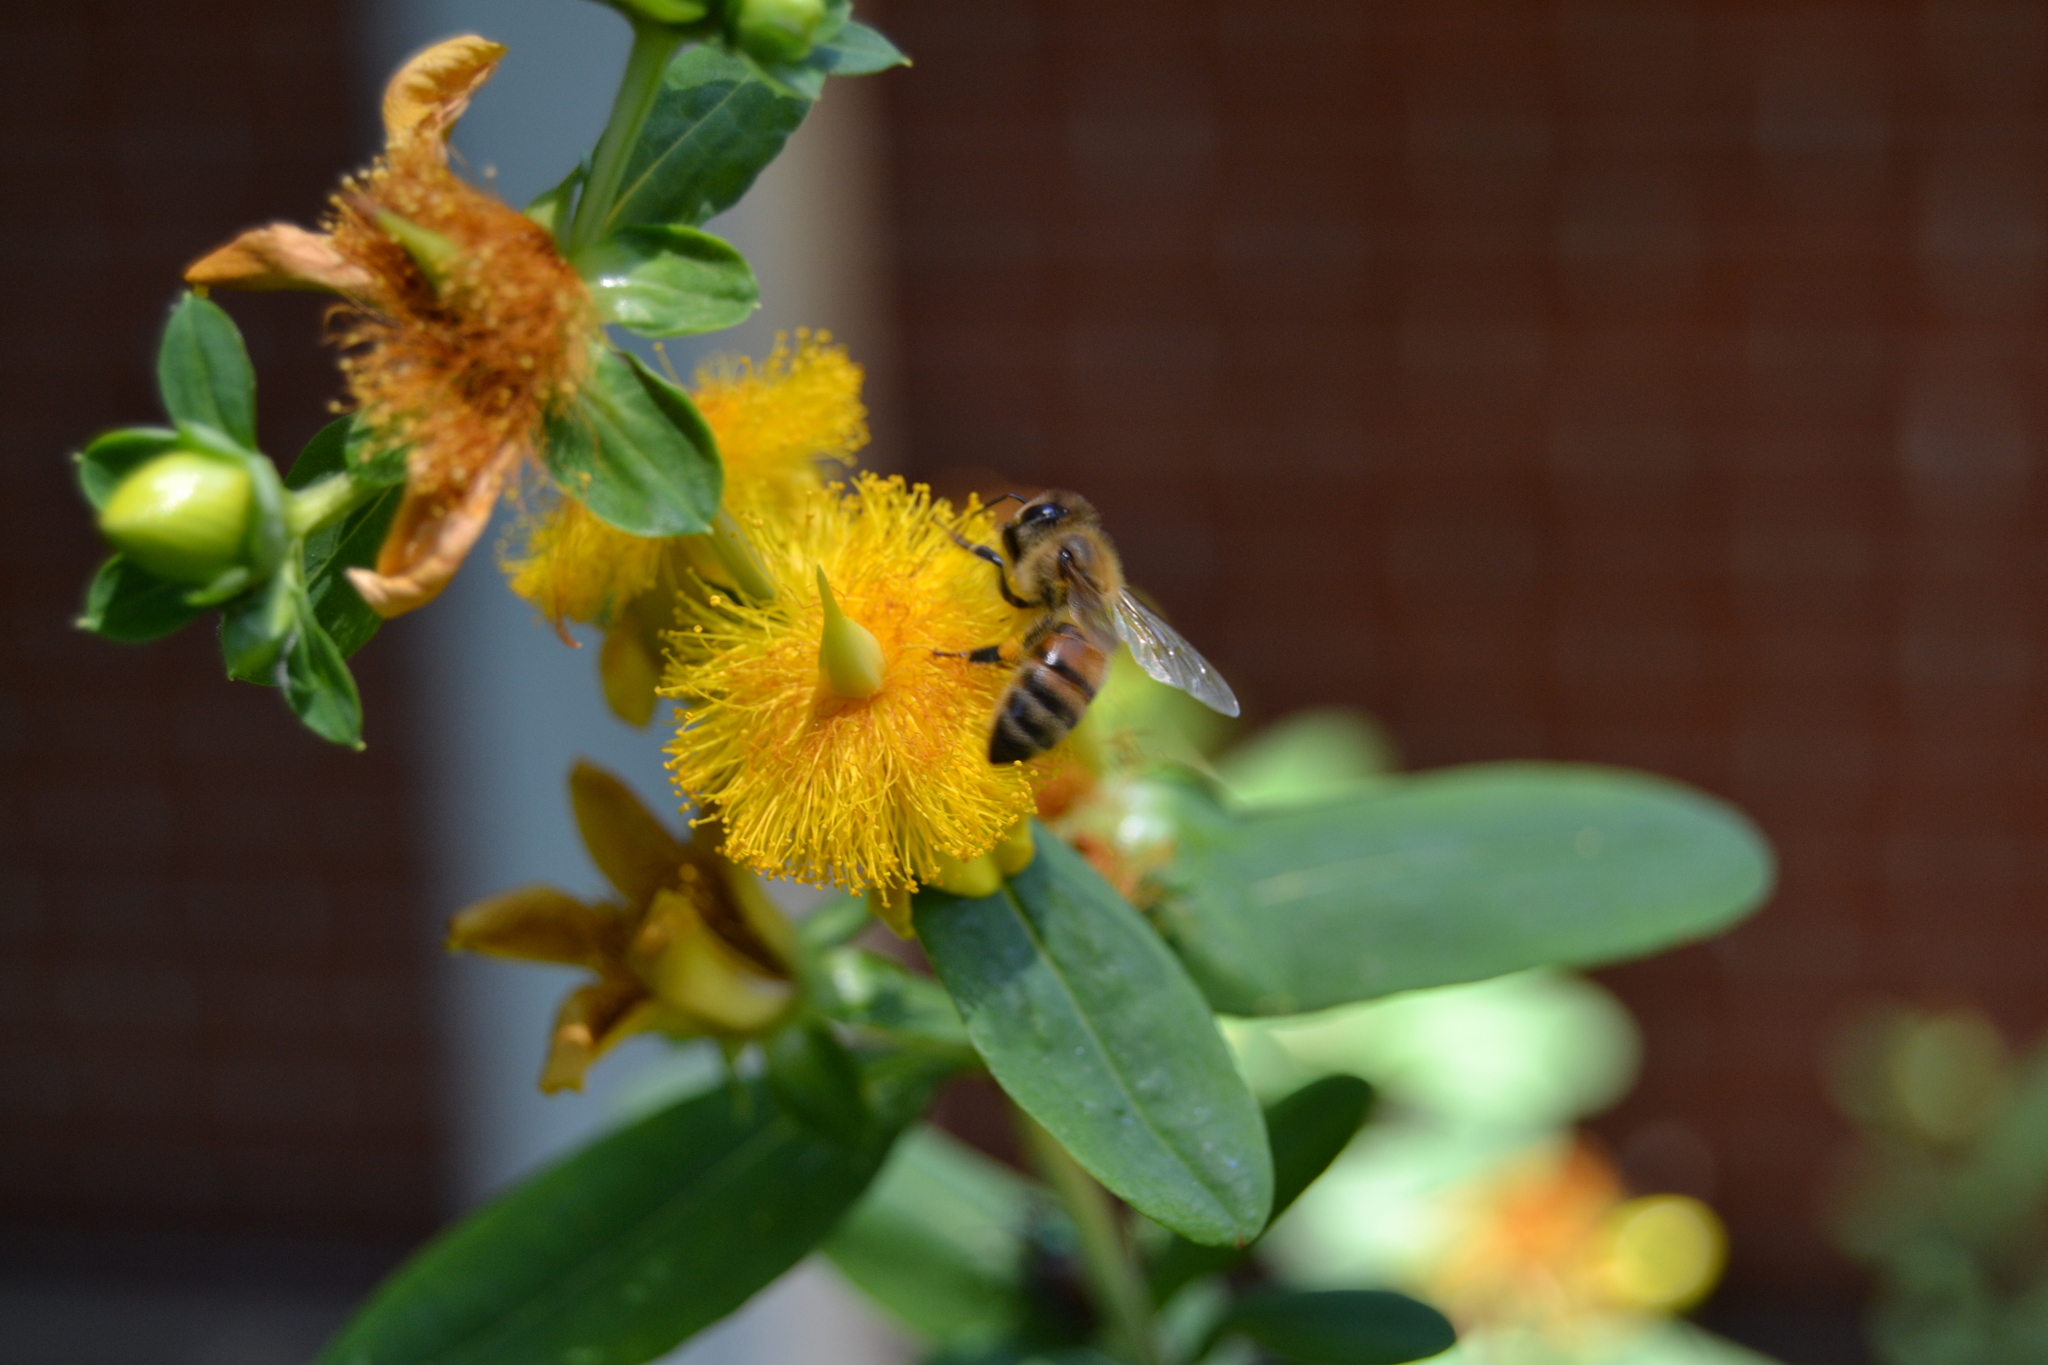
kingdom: Animalia
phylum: Arthropoda
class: Insecta
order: Hymenoptera
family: Apidae
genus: Apis
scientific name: Apis mellifera
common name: Honey bee
